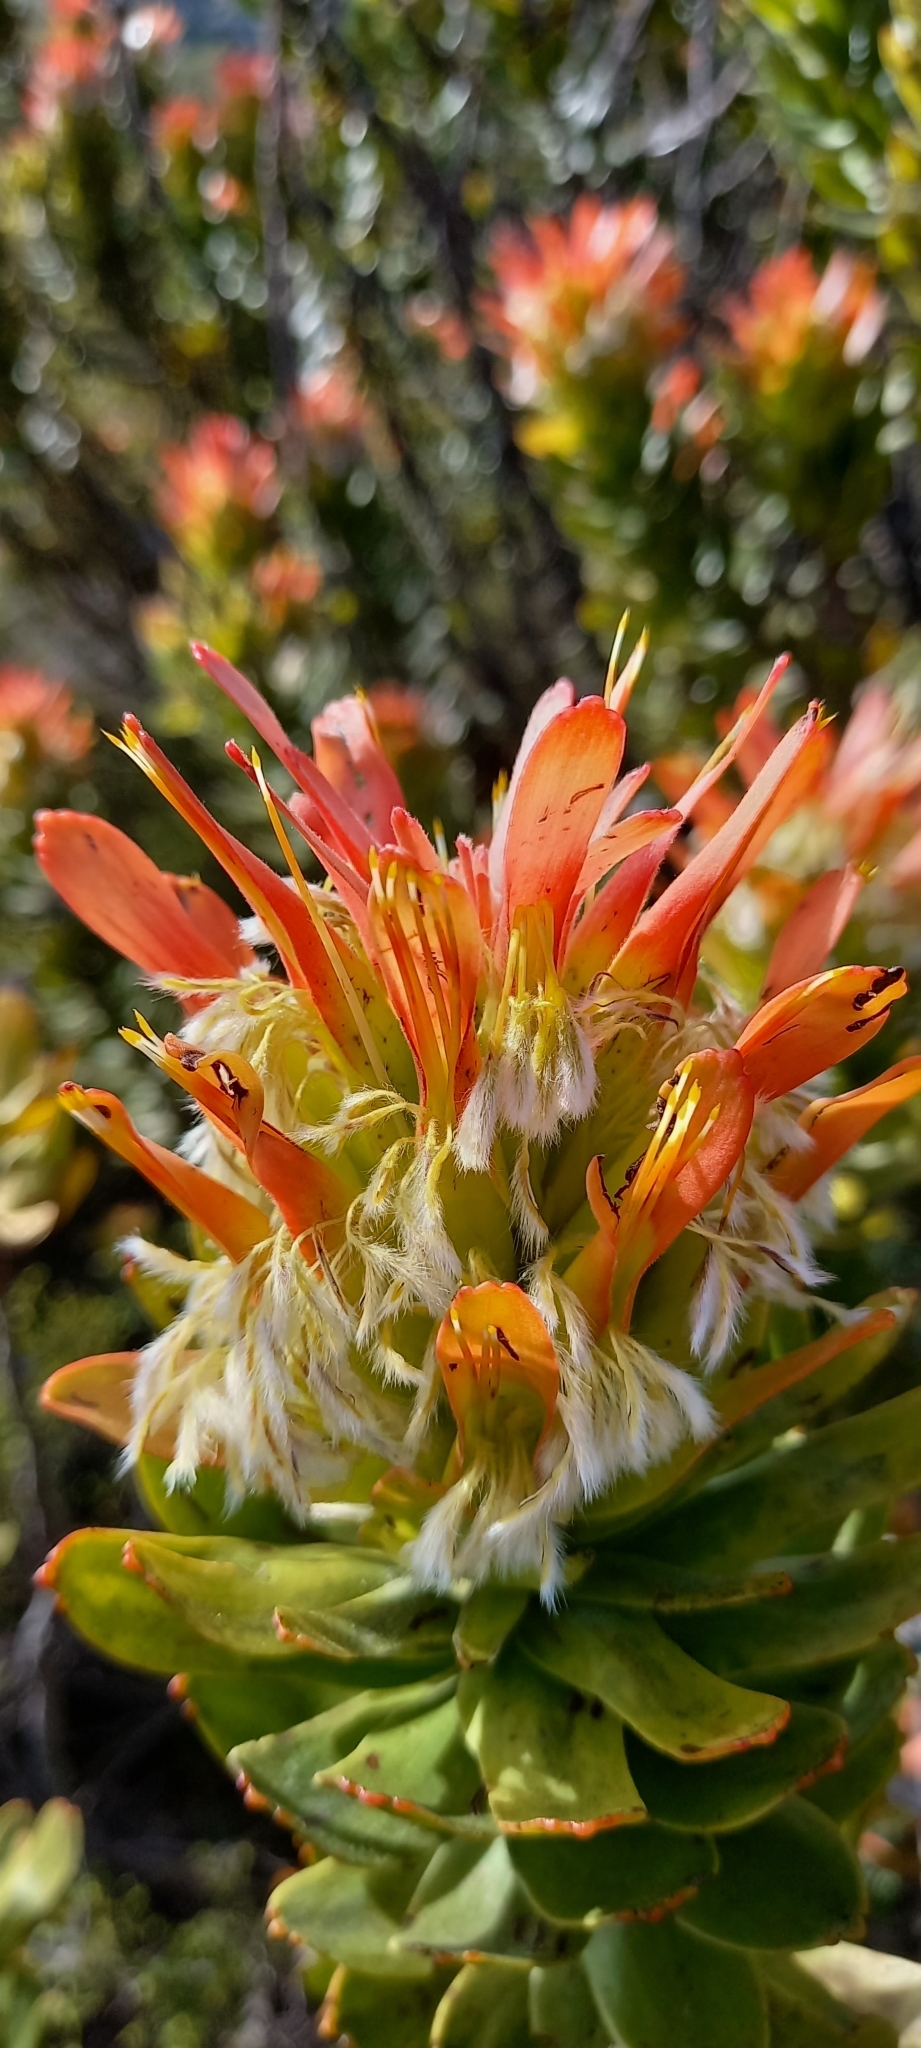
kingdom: Plantae
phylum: Tracheophyta
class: Magnoliopsida
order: Proteales
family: Proteaceae
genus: Mimetes
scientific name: Mimetes cucullatus
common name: Common pagoda
